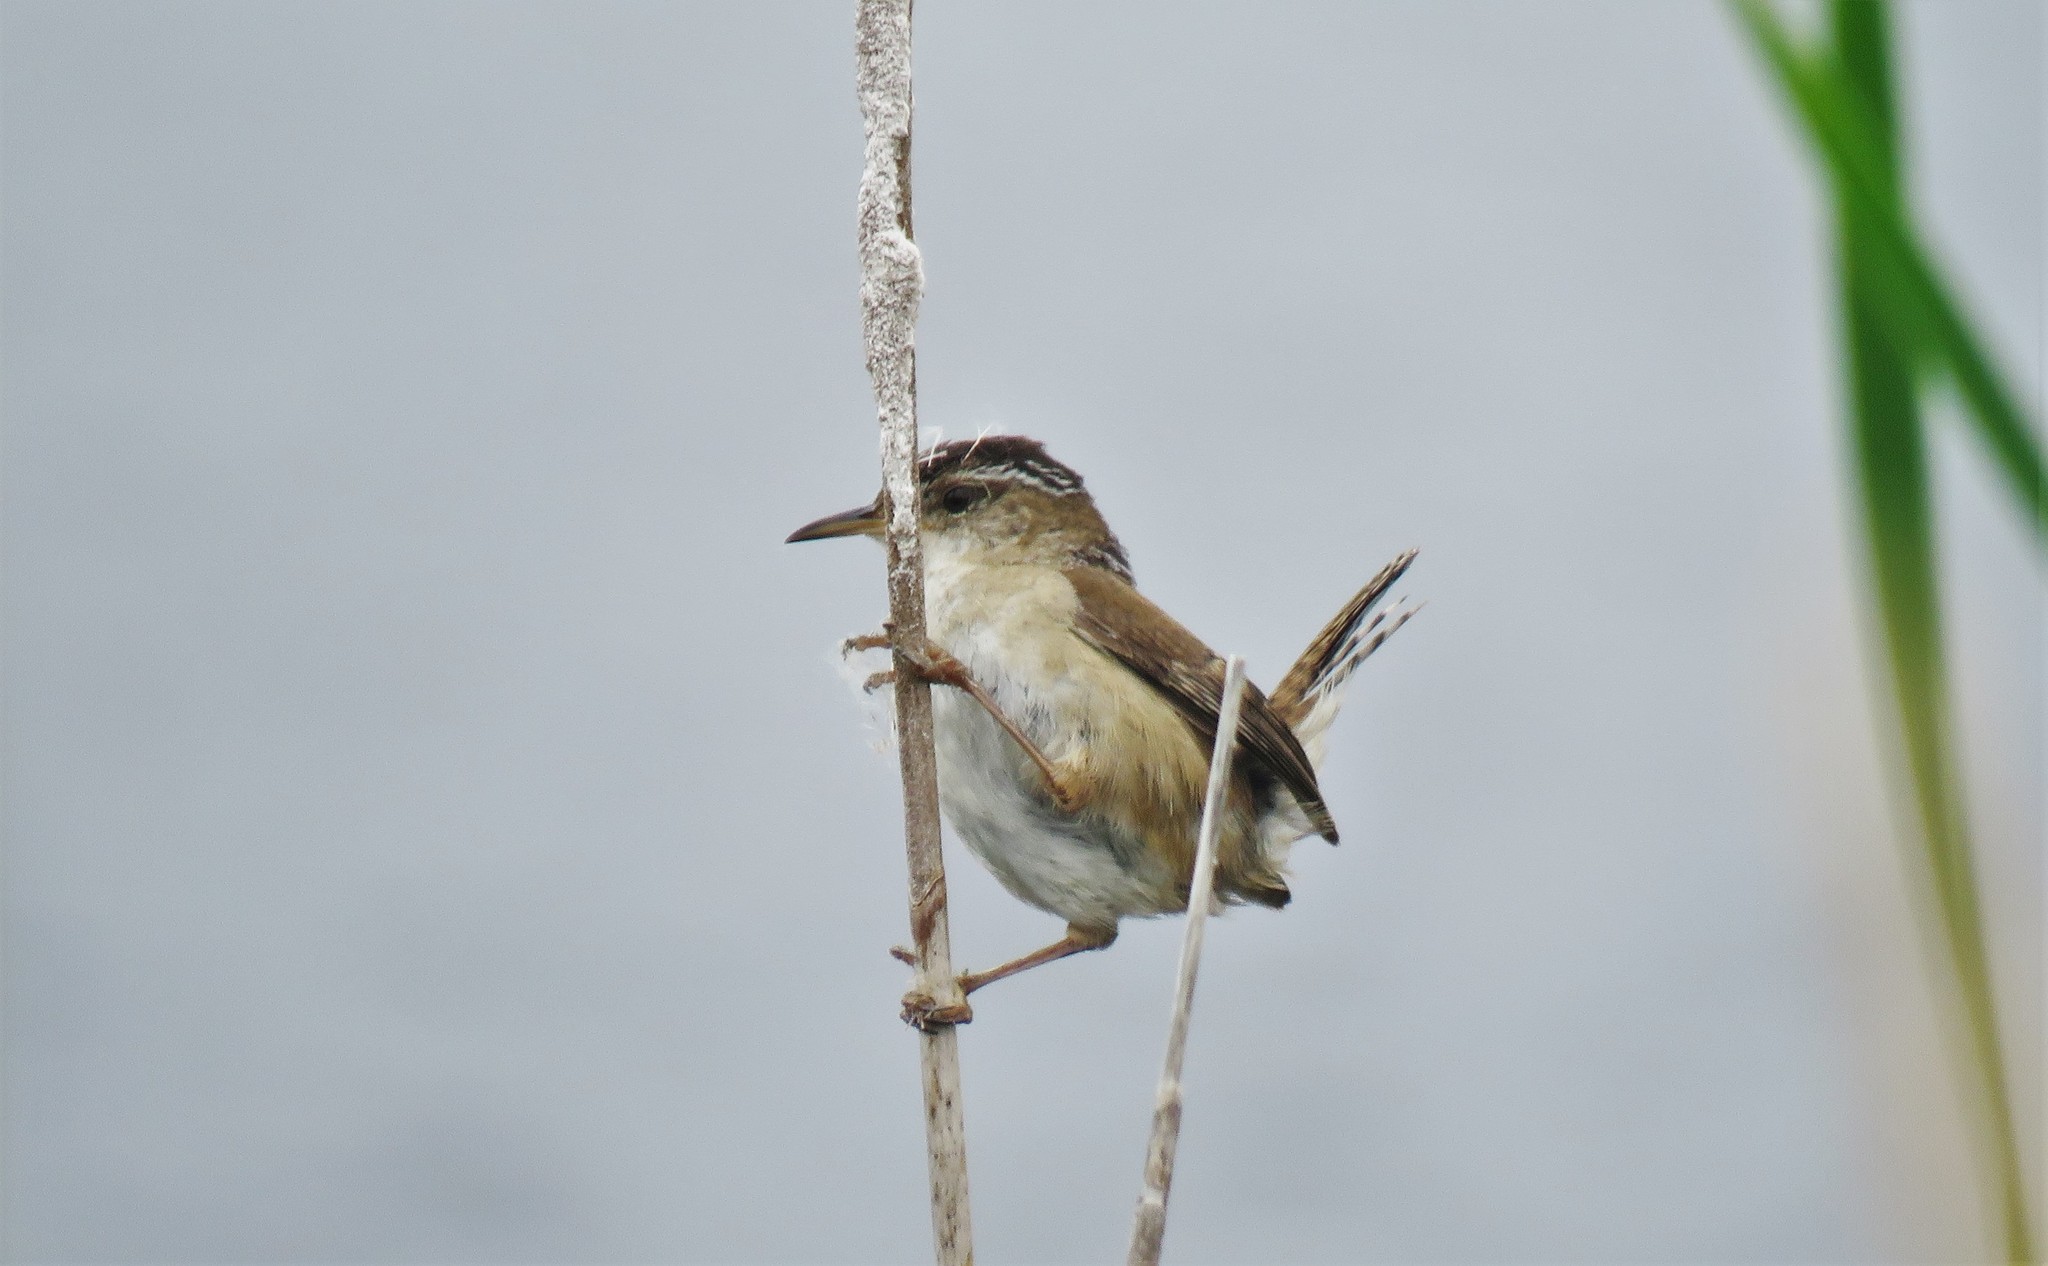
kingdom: Animalia
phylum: Chordata
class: Aves
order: Passeriformes
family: Troglodytidae
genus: Cistothorus
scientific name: Cistothorus palustris
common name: Marsh wren
